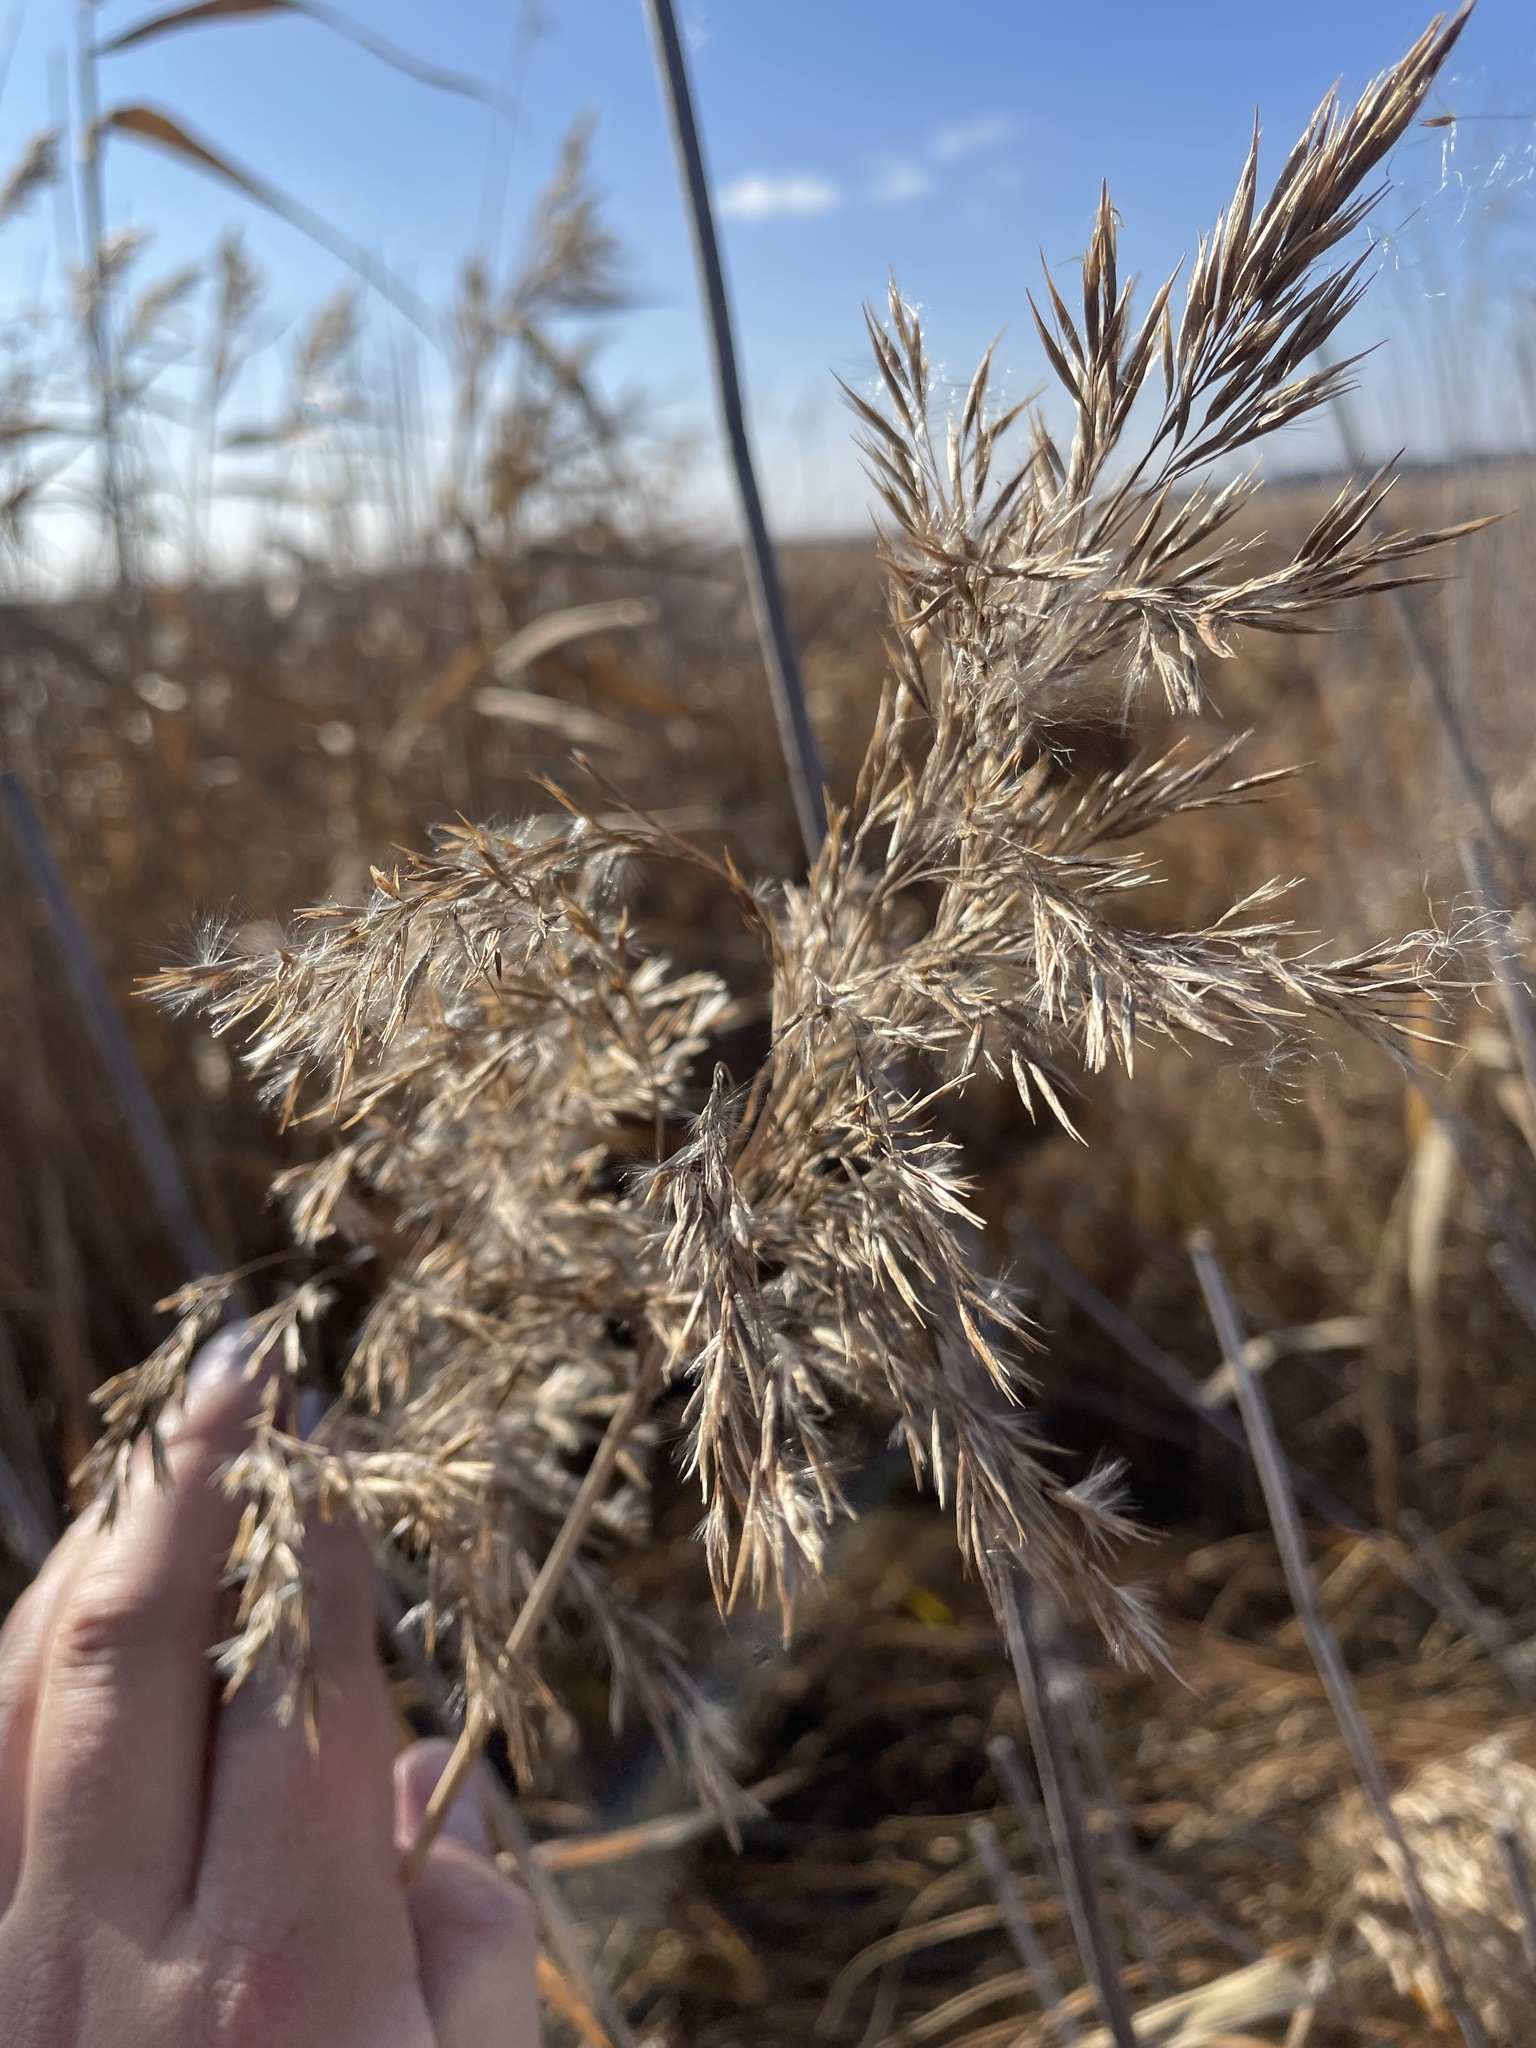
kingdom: Plantae
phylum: Tracheophyta
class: Liliopsida
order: Poales
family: Poaceae
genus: Phragmites
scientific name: Phragmites australis
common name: Common reed
